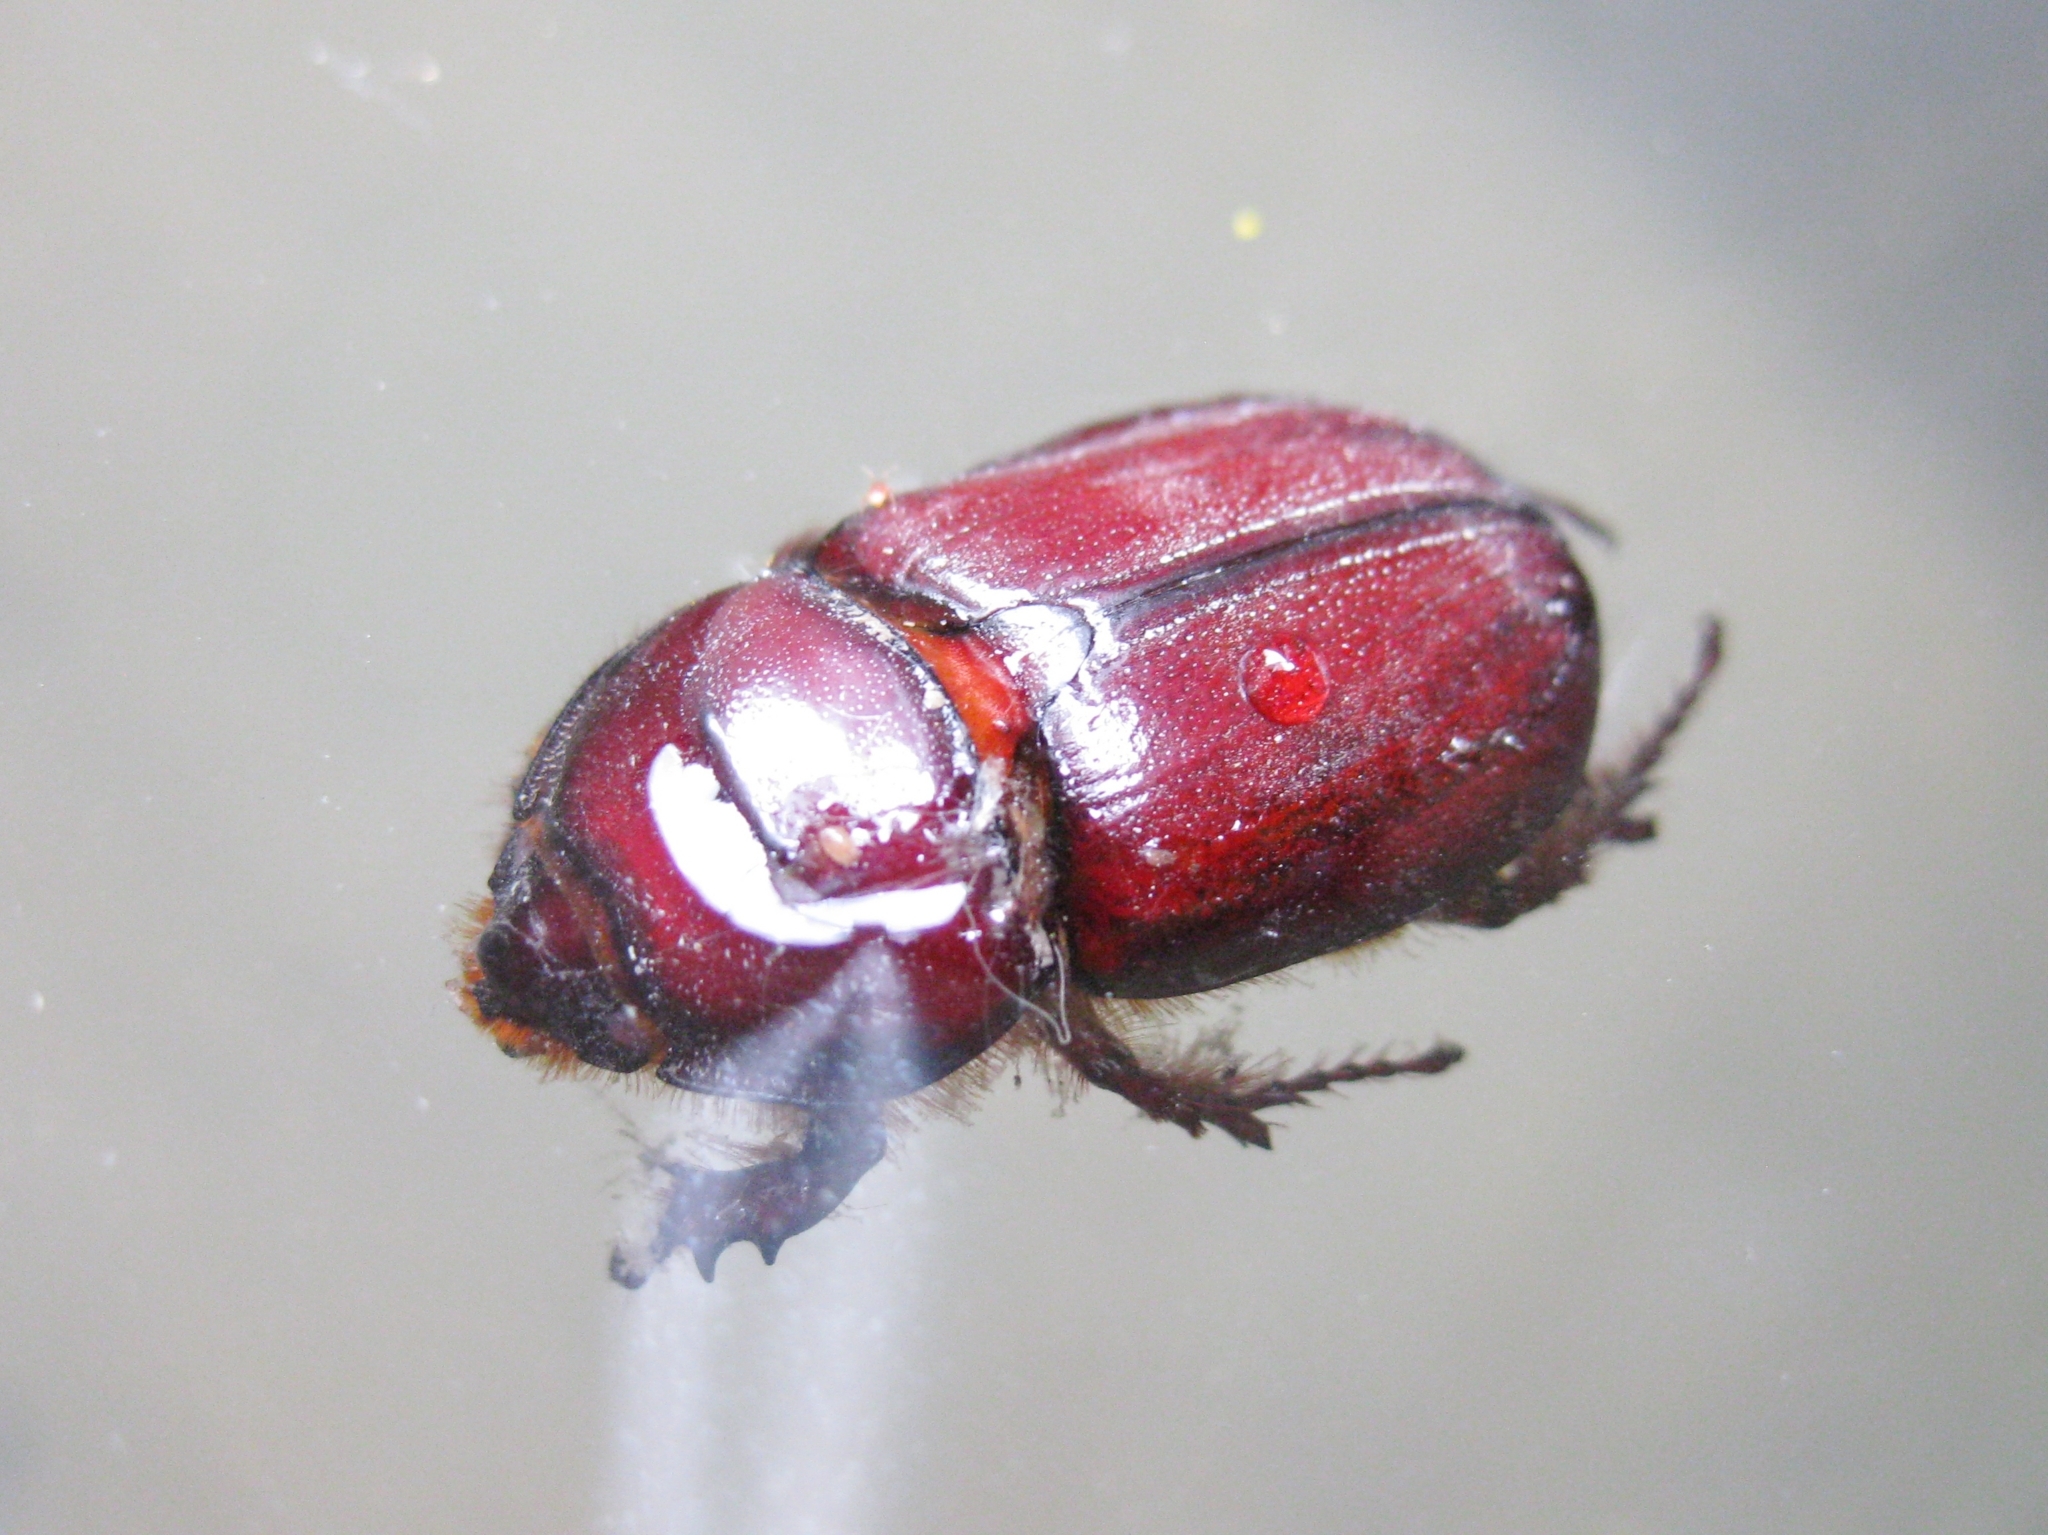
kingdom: Animalia
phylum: Arthropoda
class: Insecta
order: Coleoptera
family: Scarabaeidae
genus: Oryctes
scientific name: Oryctes nasicornis
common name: European rhinoceros beetle
